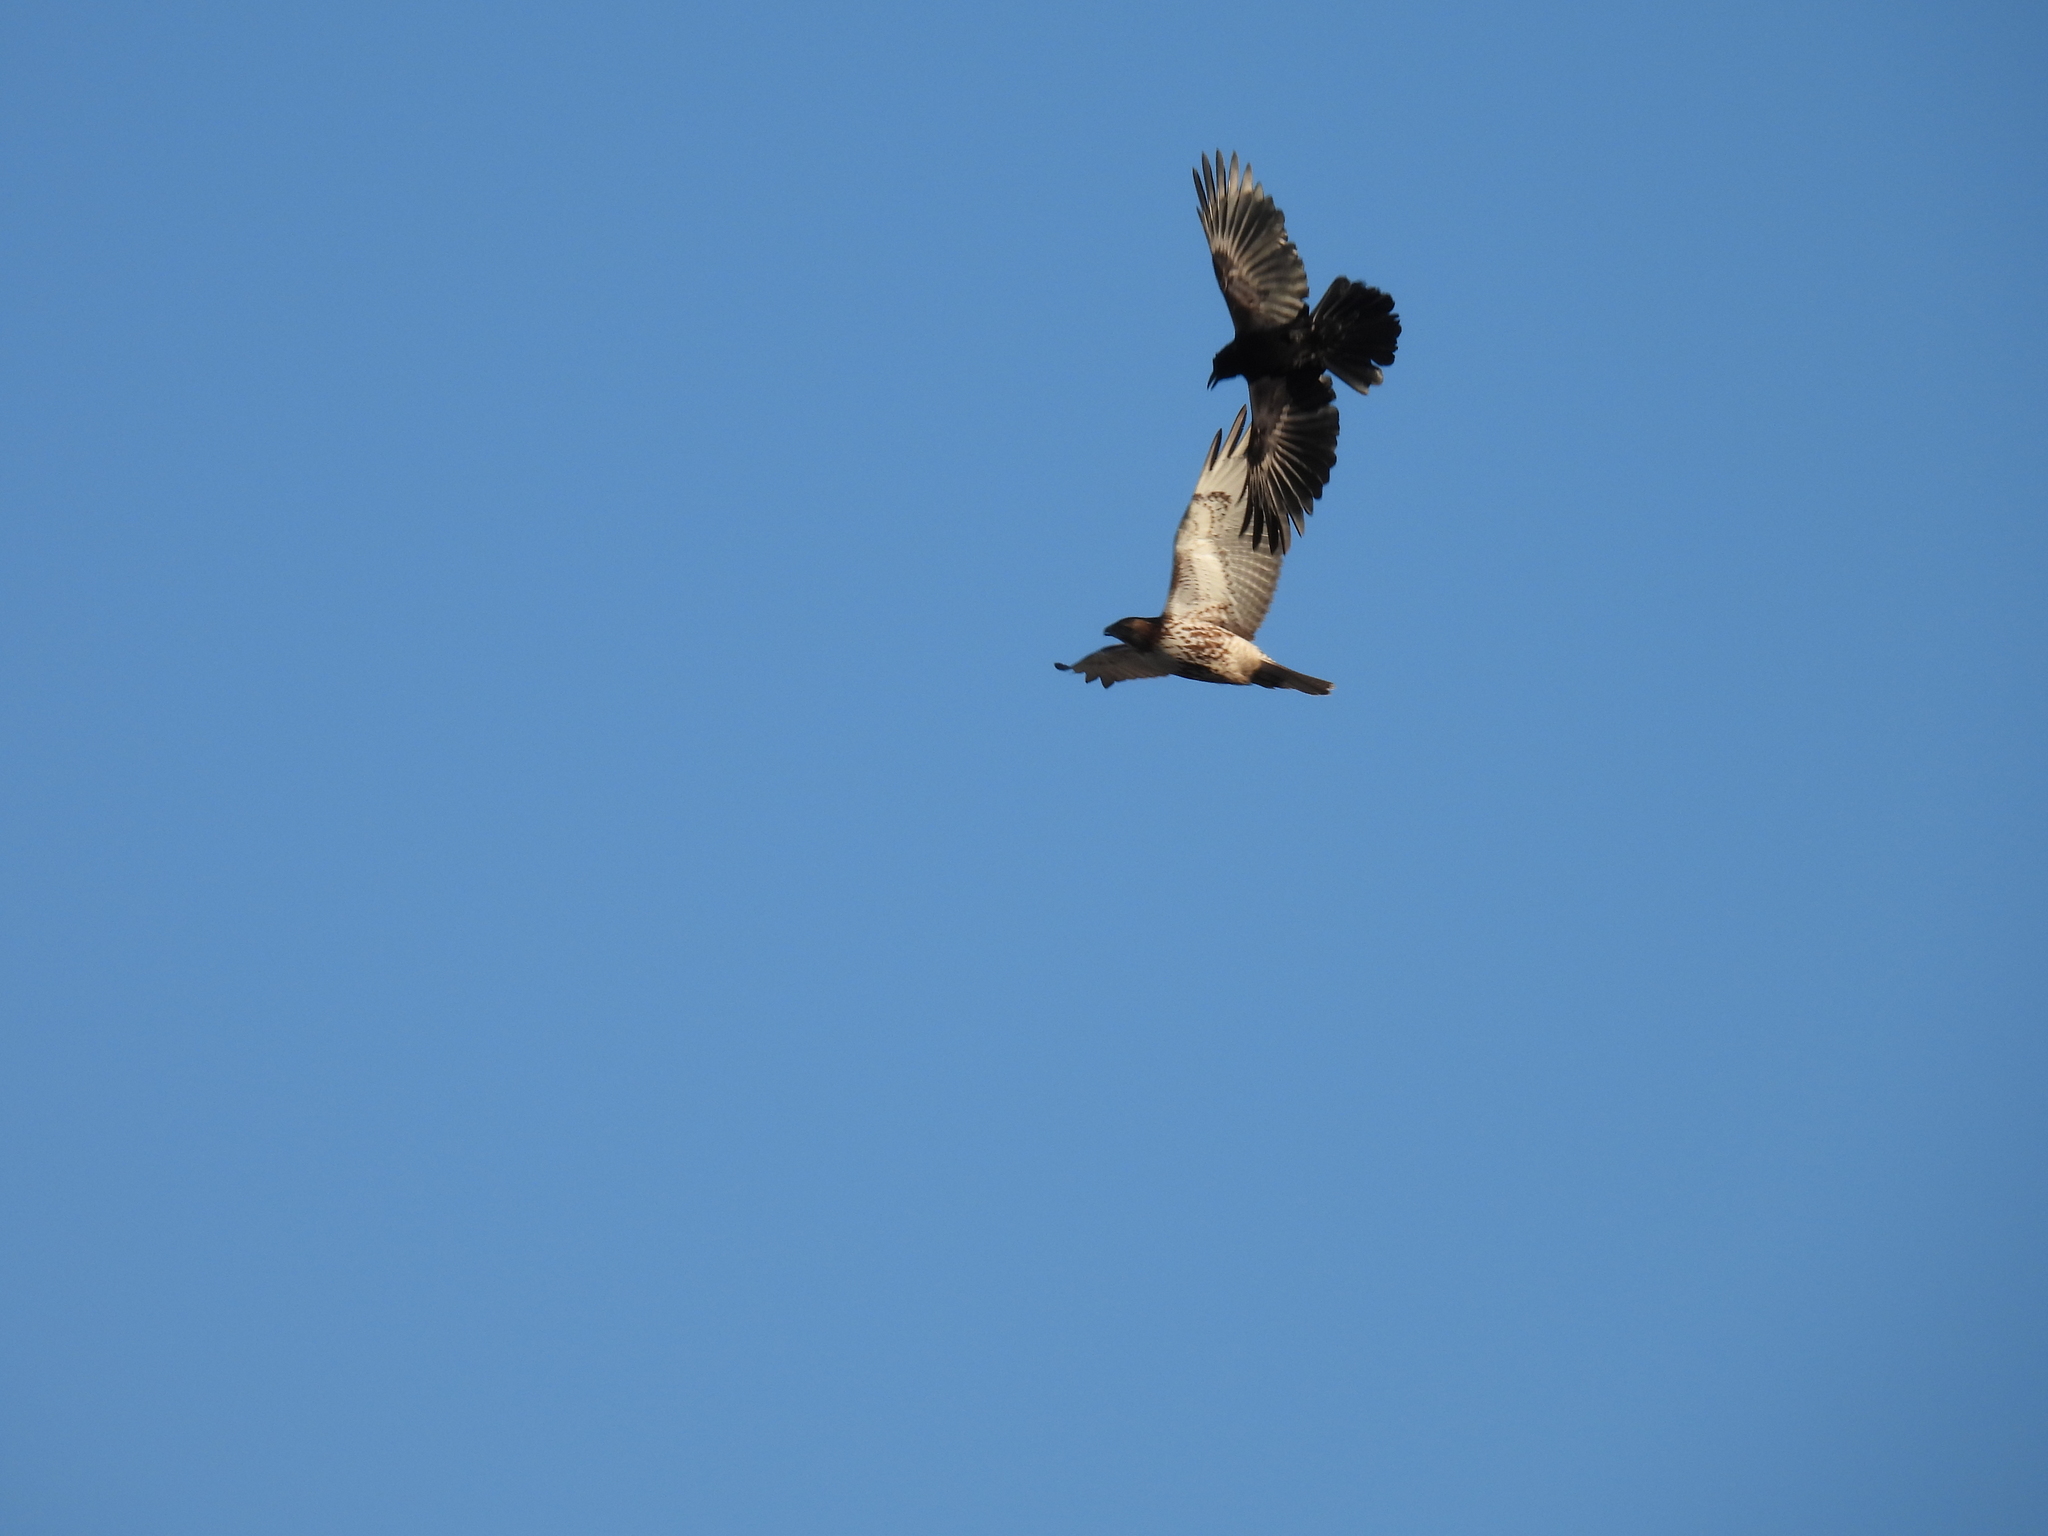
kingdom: Animalia
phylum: Chordata
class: Aves
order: Accipitriformes
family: Accipitridae
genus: Buteo
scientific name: Buteo jamaicensis
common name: Red-tailed hawk
